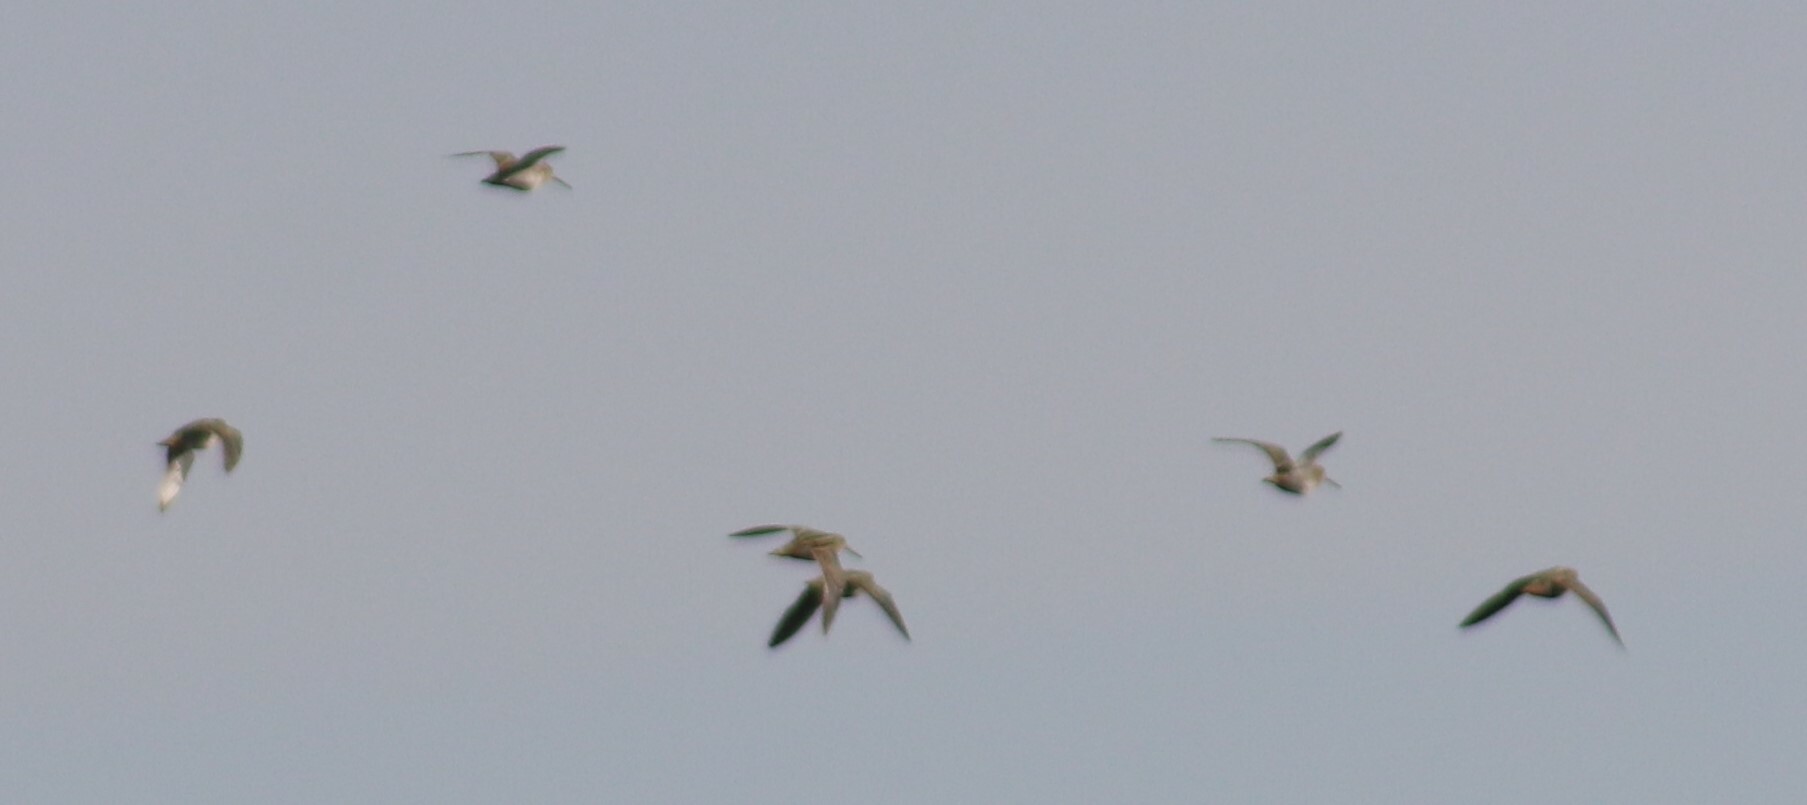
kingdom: Animalia
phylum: Chordata
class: Aves
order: Charadriiformes
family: Scolopacidae
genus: Gallinago
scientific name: Gallinago delicata
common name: Wilson's snipe
